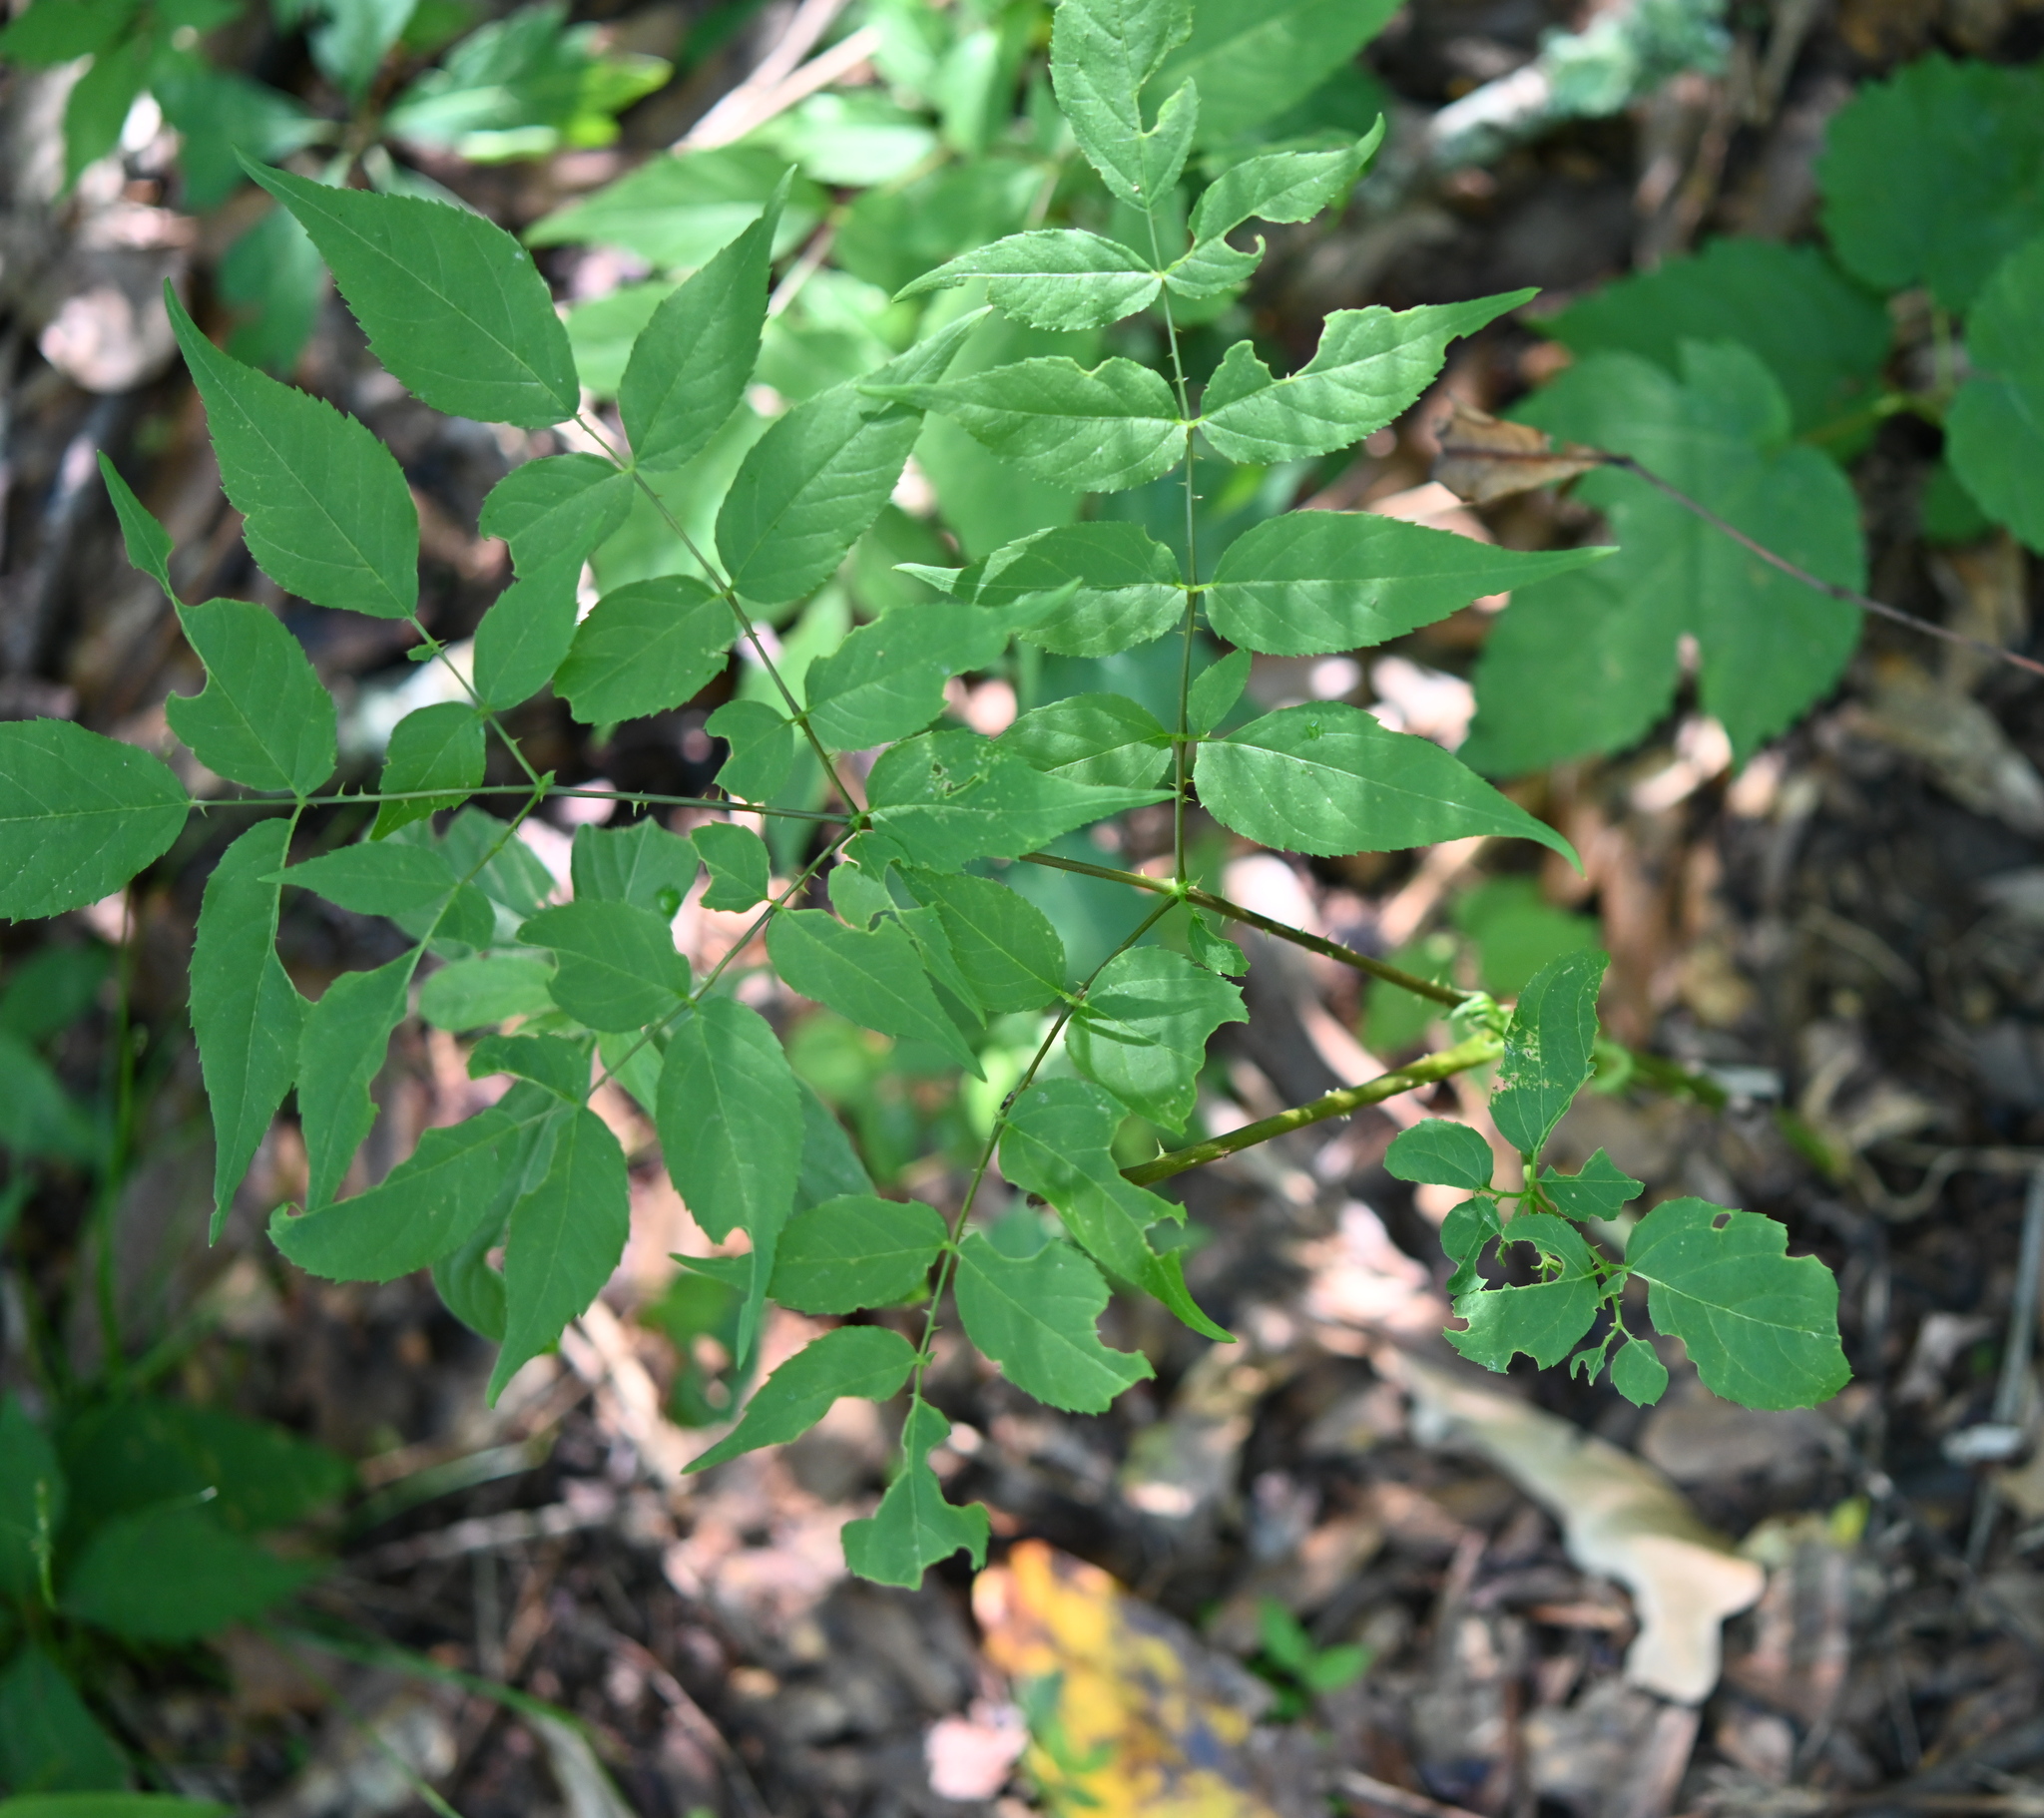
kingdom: Plantae
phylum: Tracheophyta
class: Magnoliopsida
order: Apiales
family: Araliaceae
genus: Aralia
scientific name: Aralia spinosa
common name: Hercules'-club
